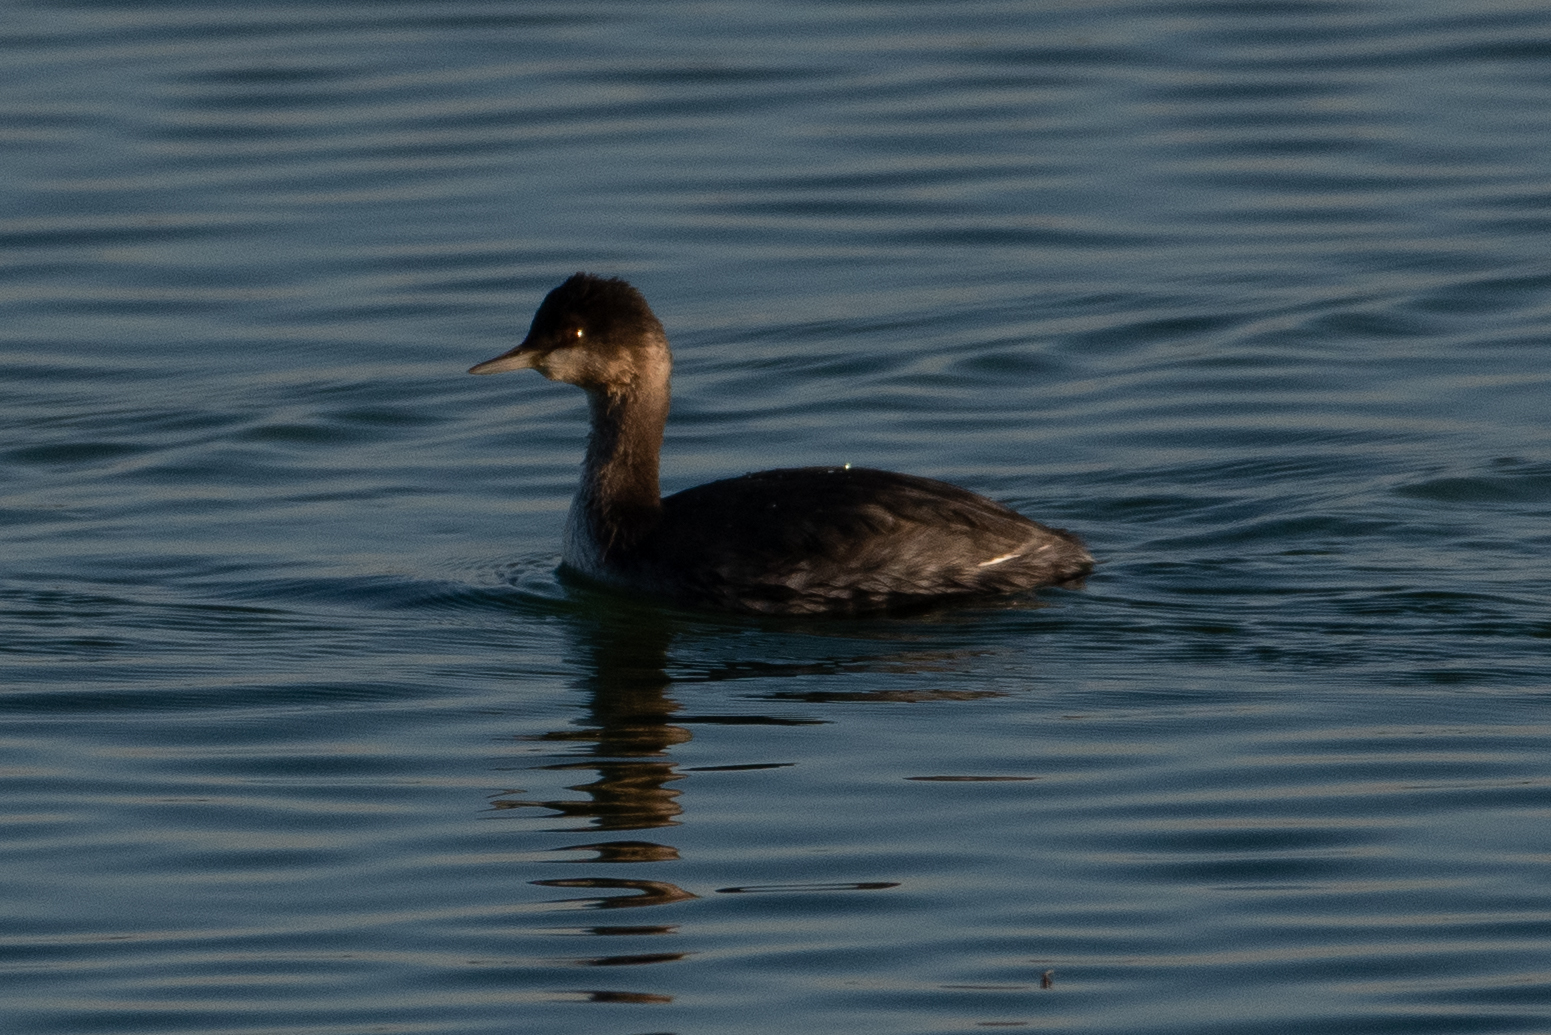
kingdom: Animalia
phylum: Chordata
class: Aves
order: Podicipediformes
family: Podicipedidae
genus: Podiceps
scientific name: Podiceps nigricollis
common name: Black-necked grebe
